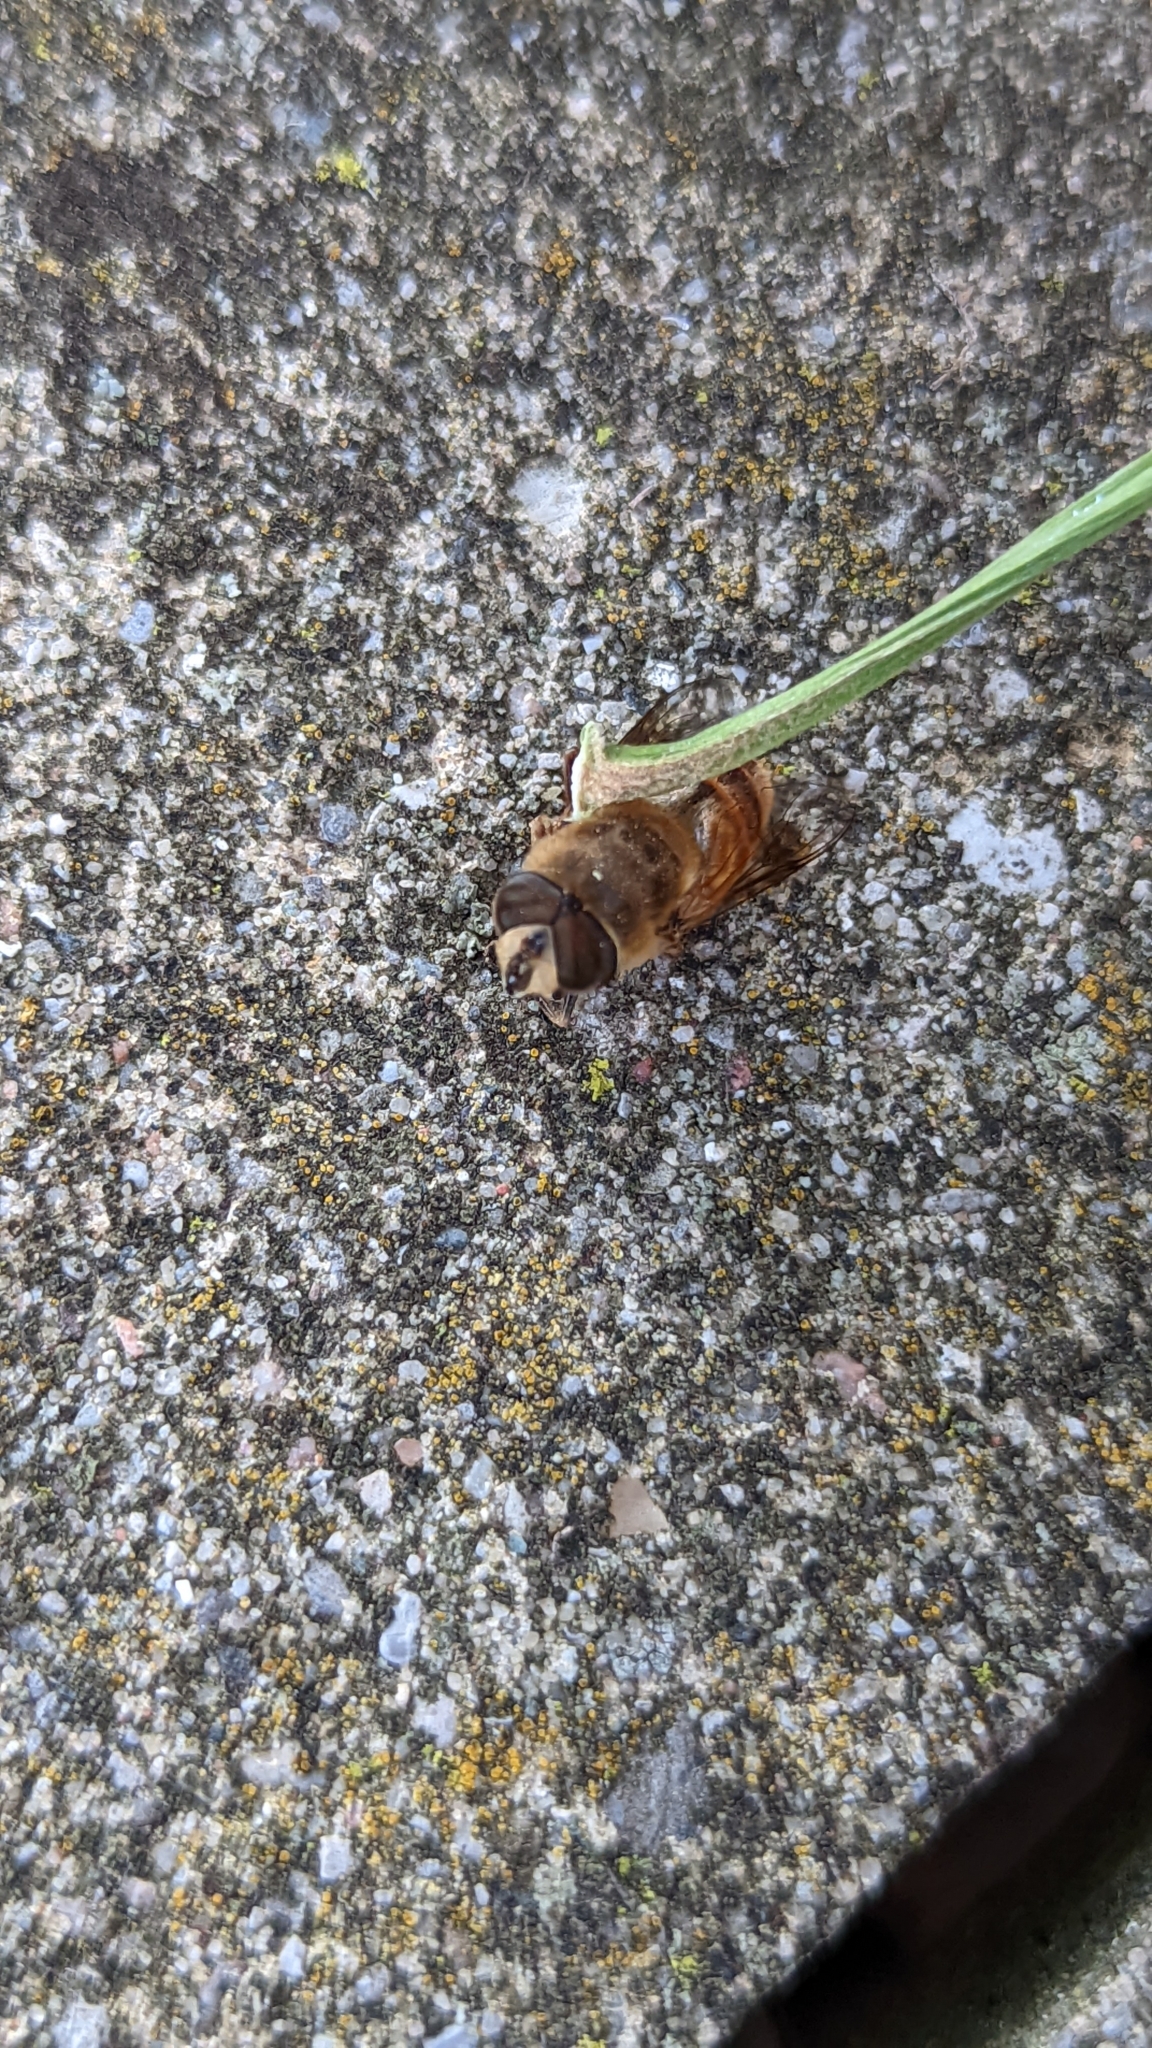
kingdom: Animalia
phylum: Arthropoda
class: Insecta
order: Diptera
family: Syrphidae
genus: Eristalis
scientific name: Eristalis tenax
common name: Drone fly
